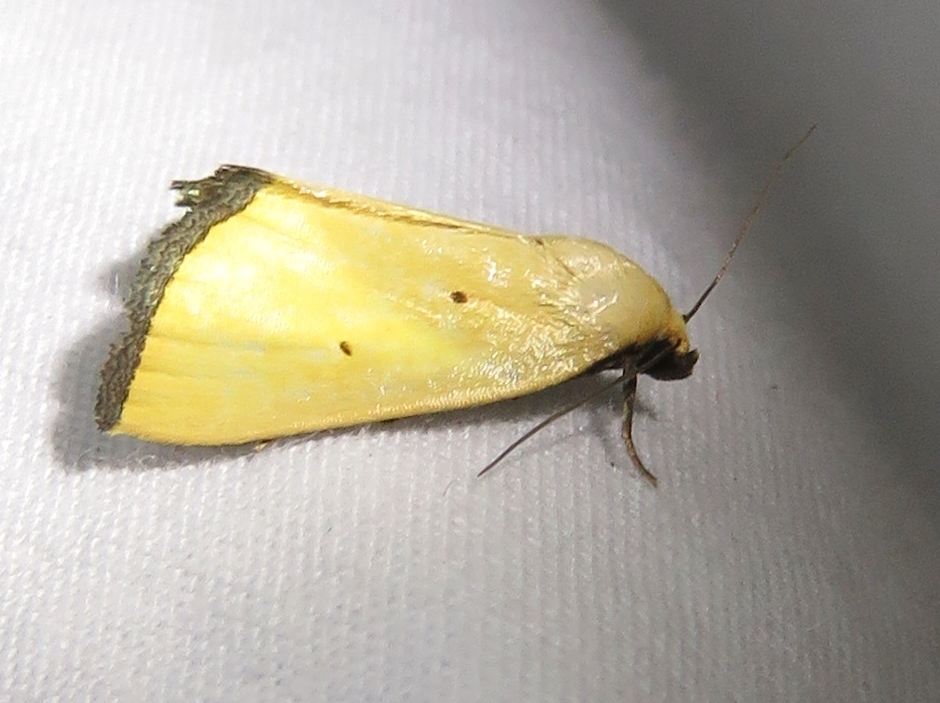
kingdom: Animalia
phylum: Arthropoda
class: Insecta
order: Lepidoptera
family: Noctuidae
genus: Marimatha
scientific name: Marimatha nigrofimbria
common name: Black-bordered lemon moth
